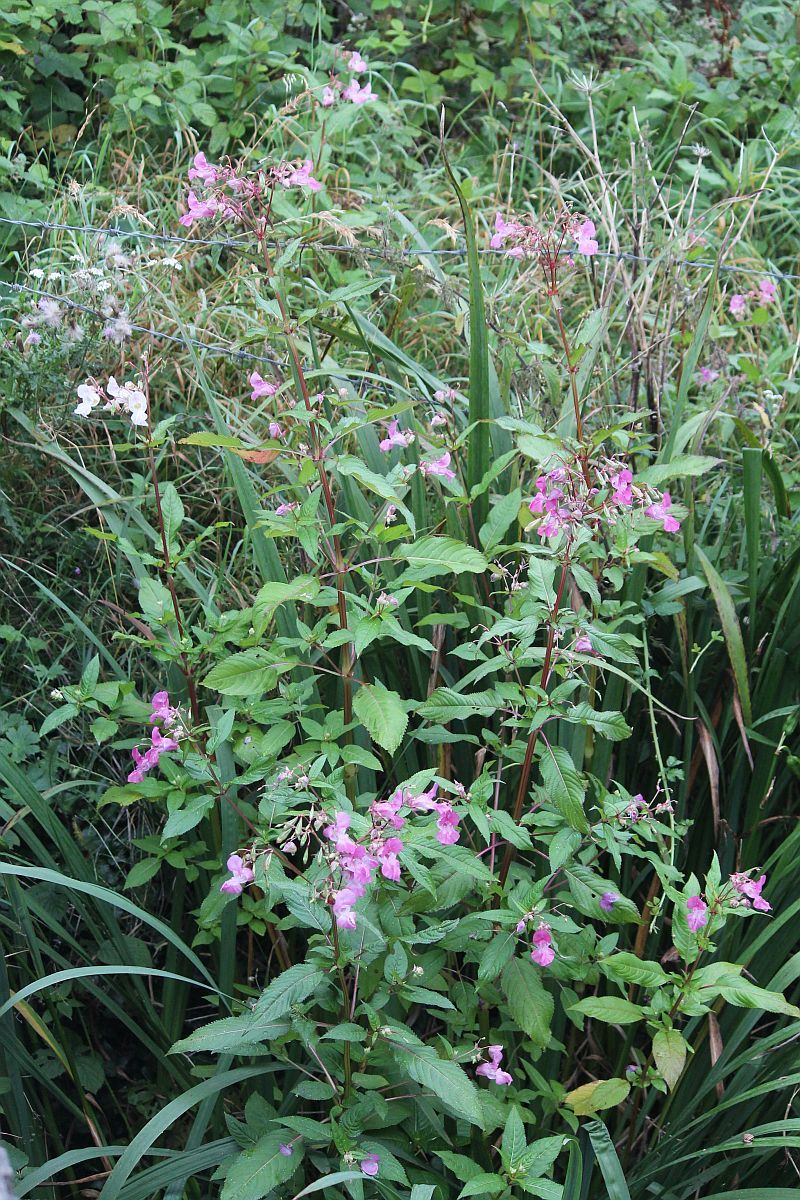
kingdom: Plantae
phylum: Tracheophyta
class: Magnoliopsida
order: Ericales
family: Balsaminaceae
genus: Impatiens
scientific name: Impatiens glandulifera
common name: Himalayan balsam
